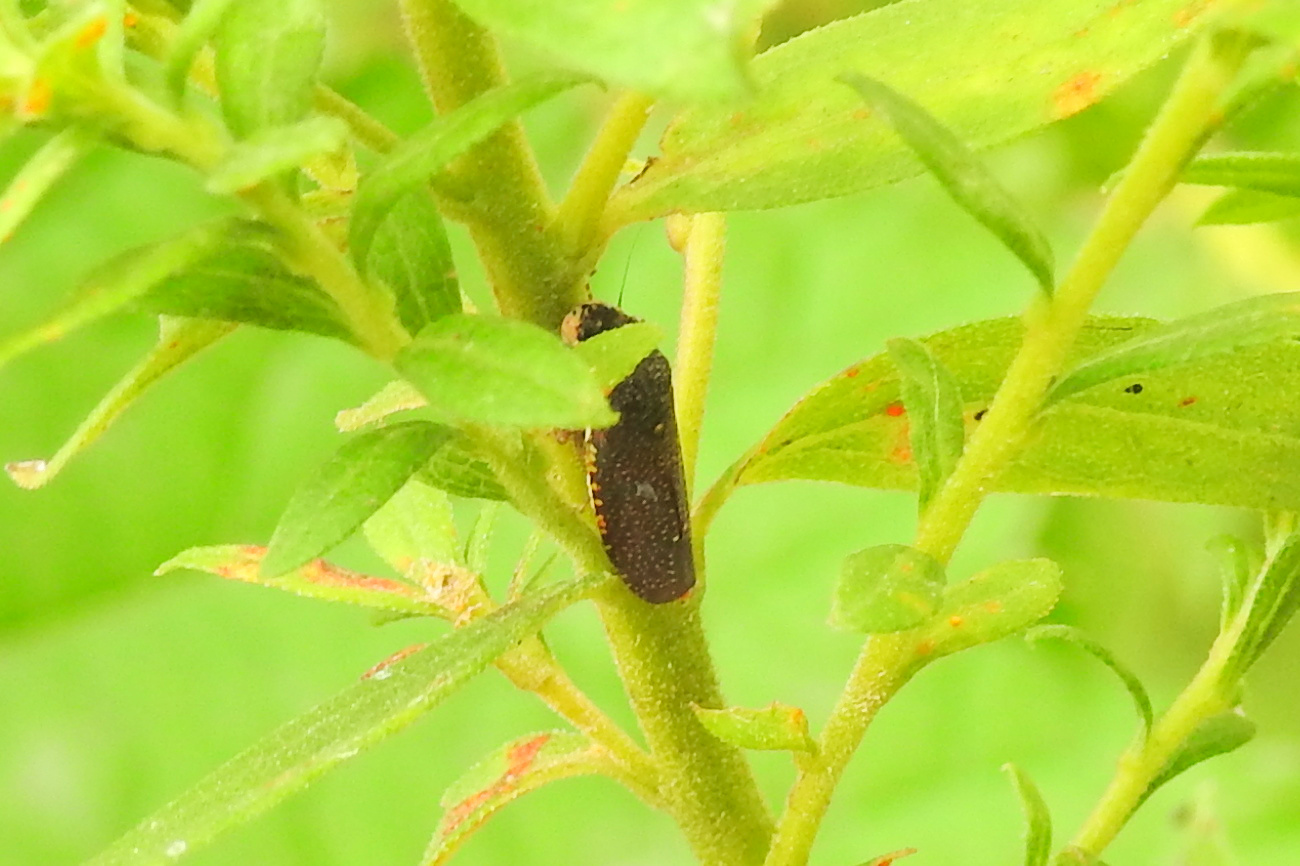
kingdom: Animalia
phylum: Arthropoda
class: Insecta
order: Hemiptera
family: Cicadellidae
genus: Paraulacizes
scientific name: Paraulacizes irrorata
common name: Speckled sharpshooter
